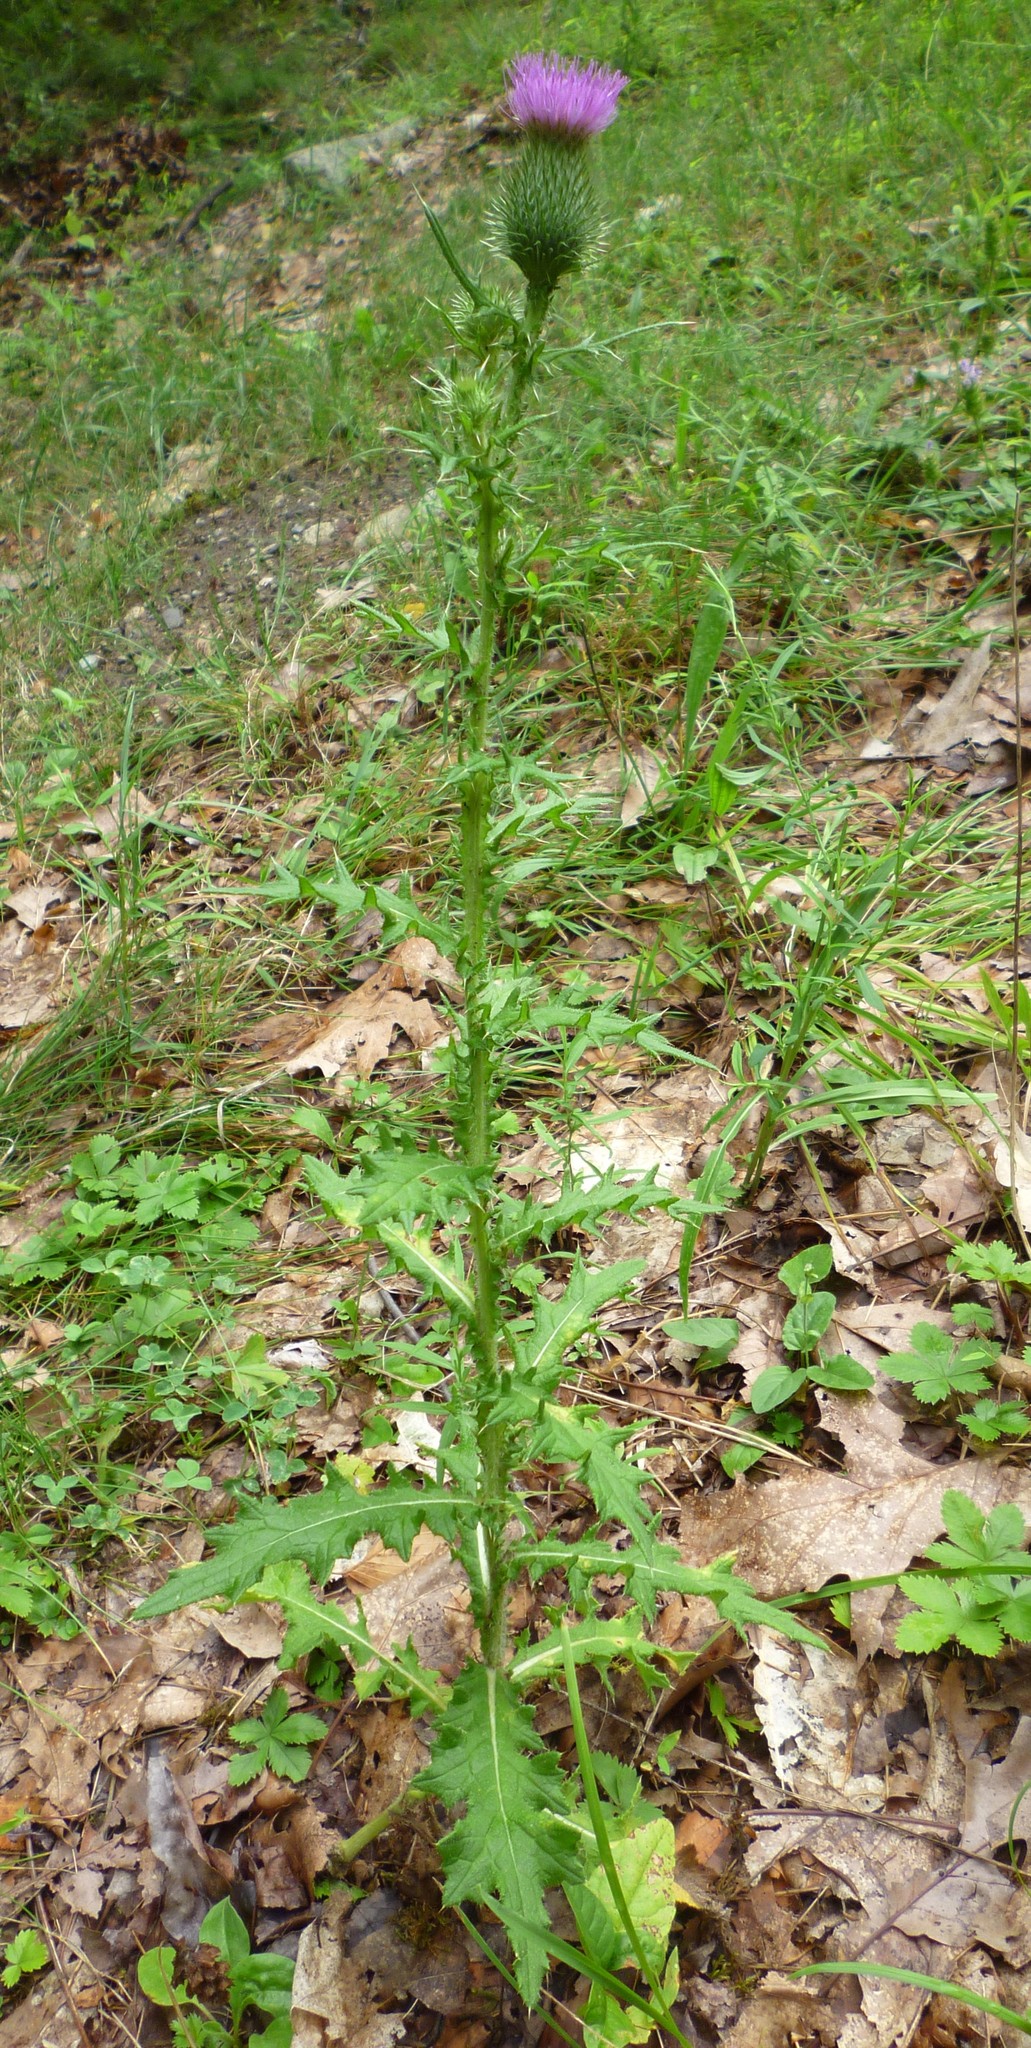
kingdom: Plantae
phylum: Tracheophyta
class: Magnoliopsida
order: Asterales
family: Asteraceae
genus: Cirsium
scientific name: Cirsium vulgare
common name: Bull thistle
